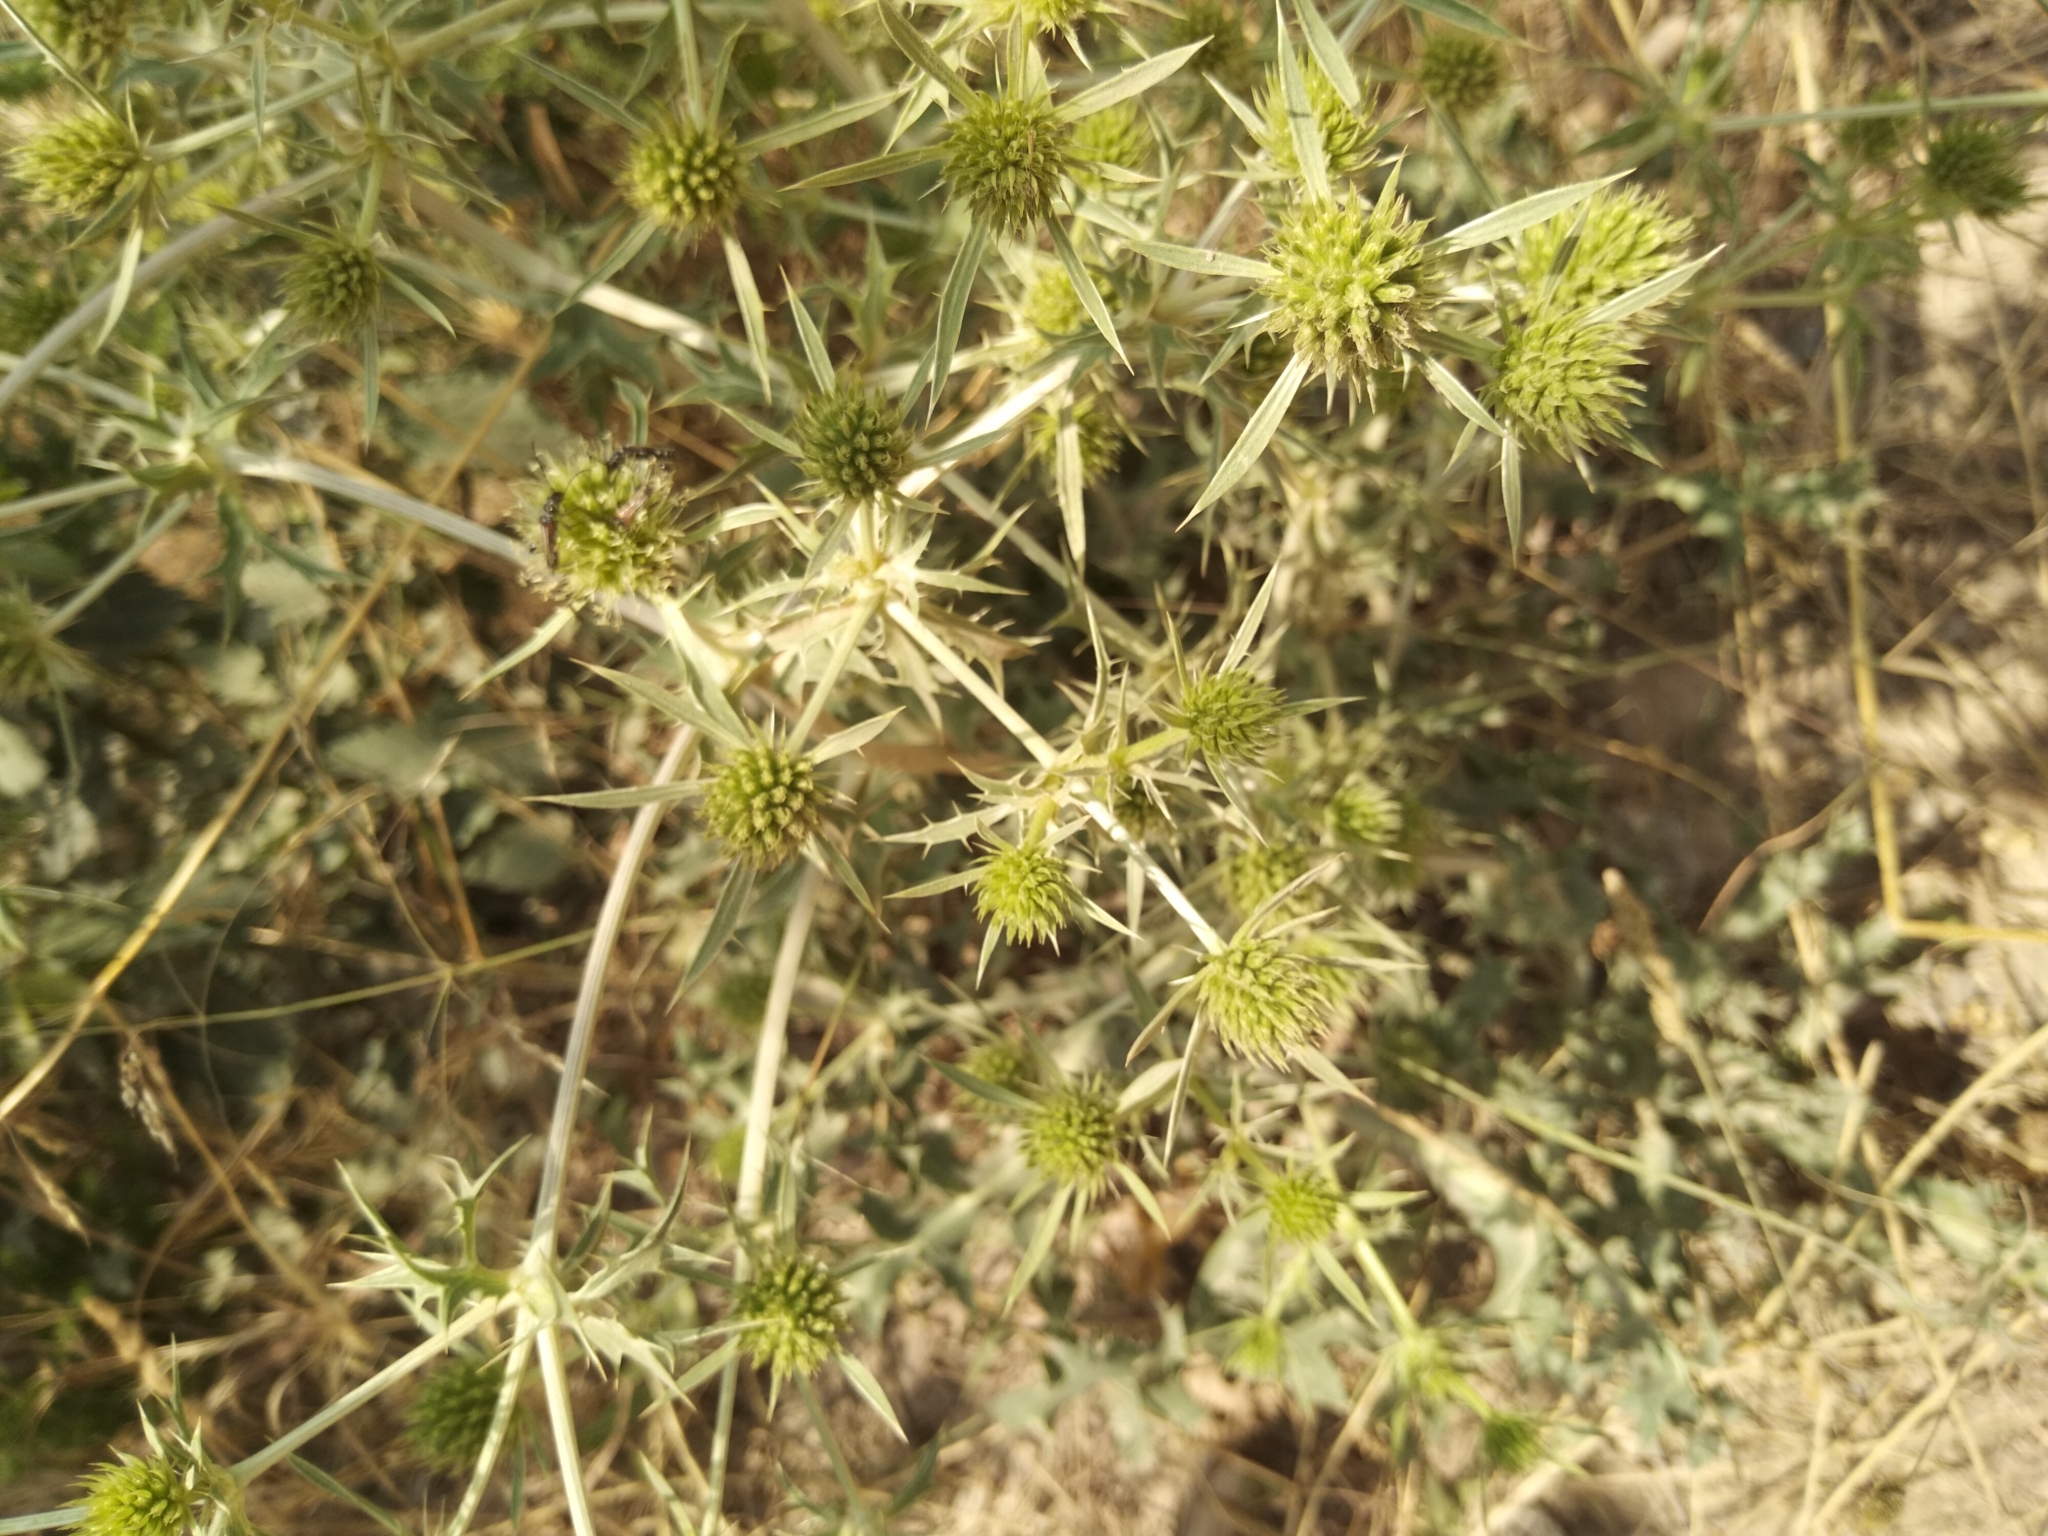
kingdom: Plantae
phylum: Tracheophyta
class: Magnoliopsida
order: Apiales
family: Apiaceae
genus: Eryngium
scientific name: Eryngium campestre
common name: Field eryngo
